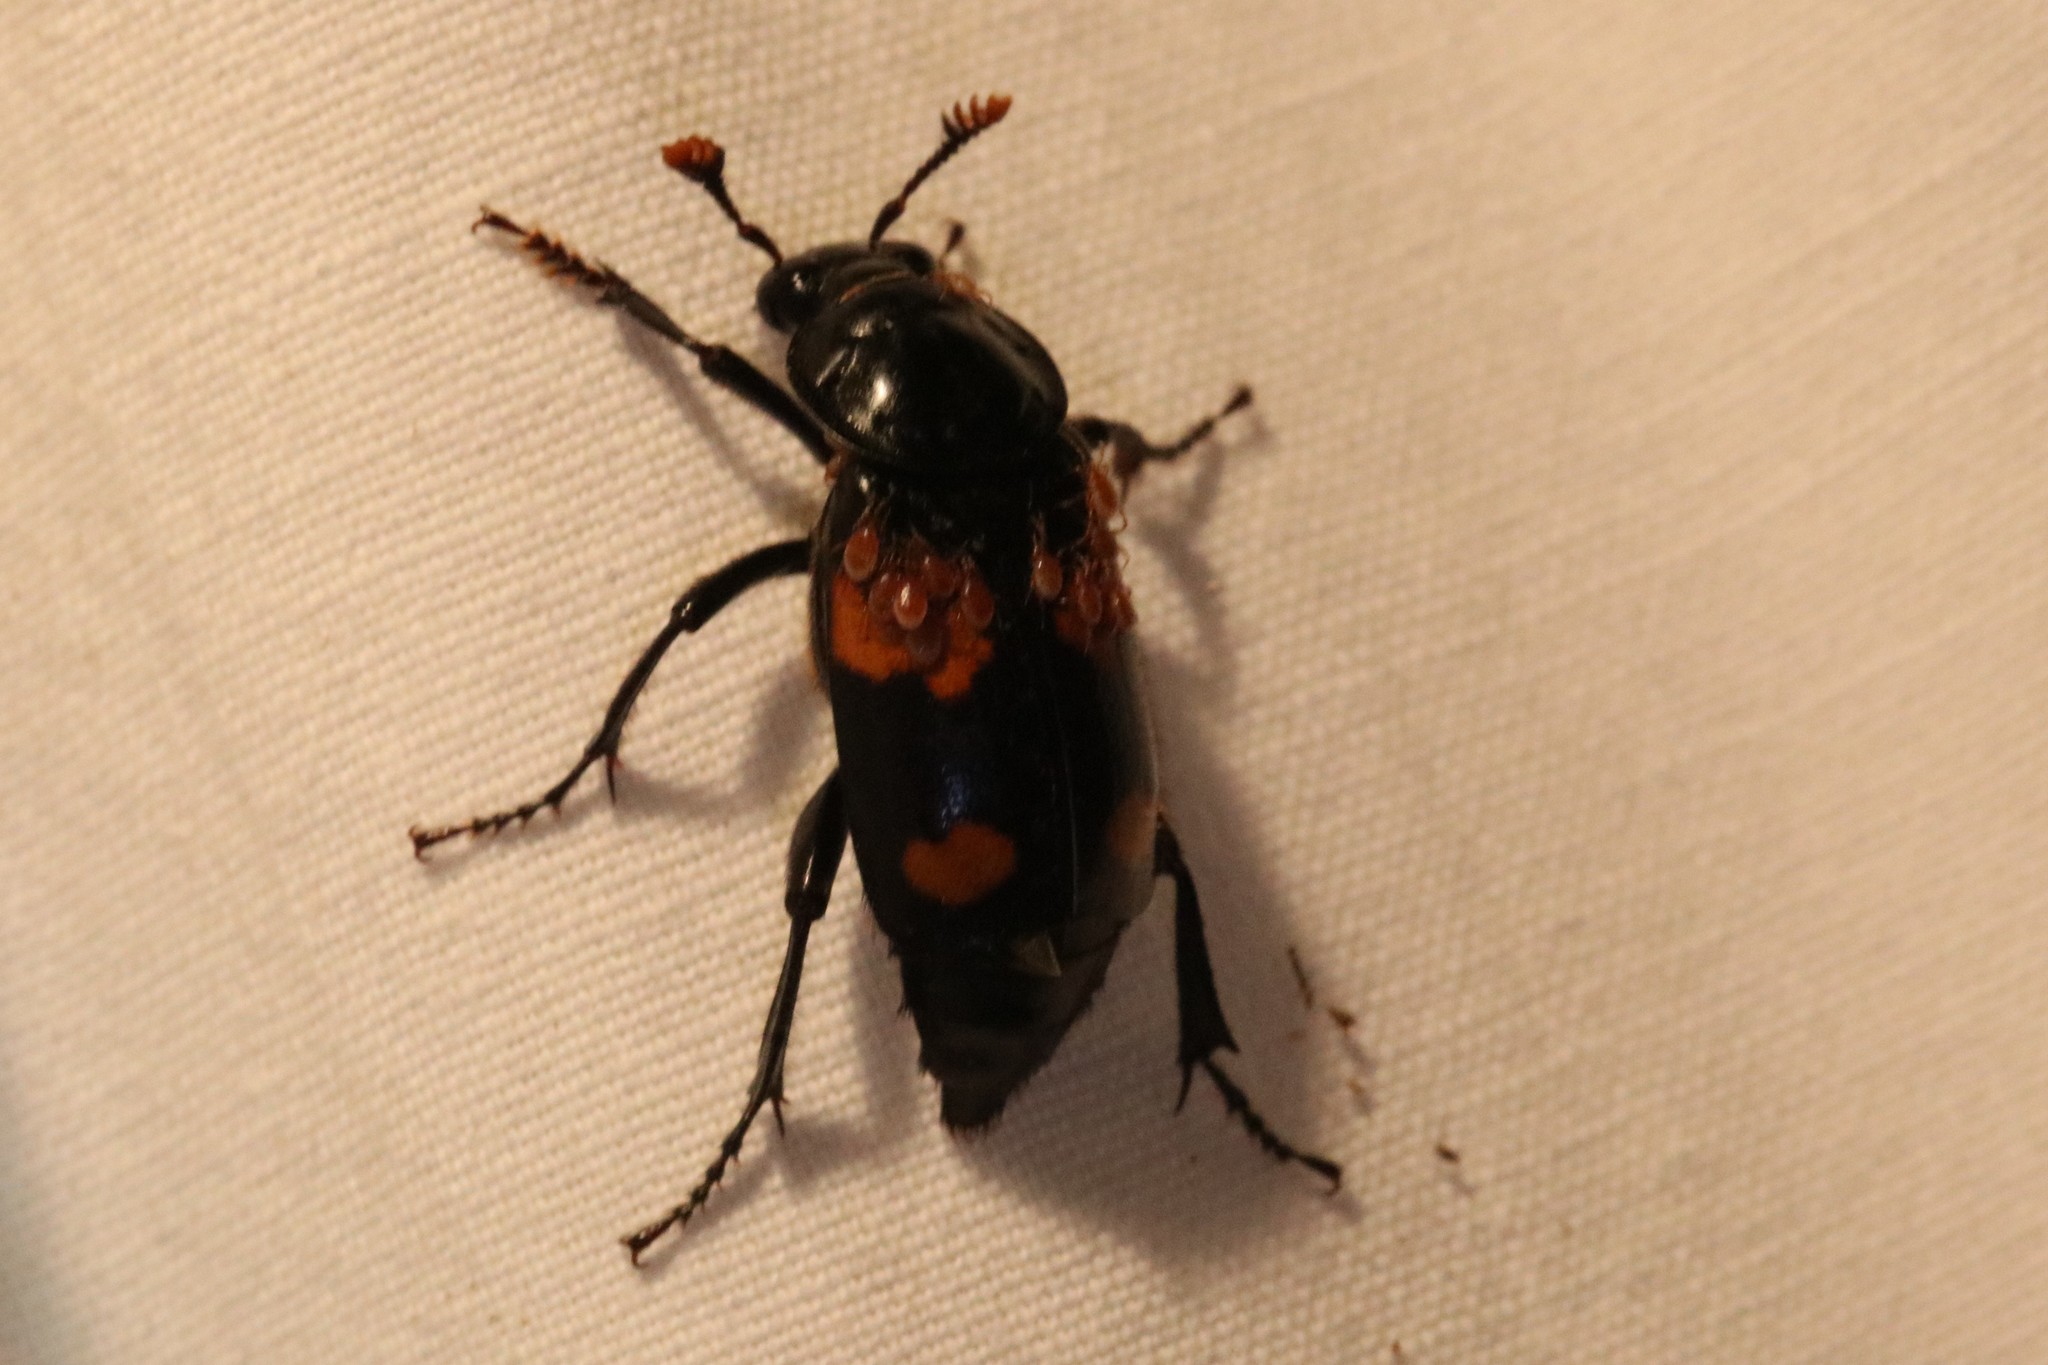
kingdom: Animalia
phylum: Arthropoda
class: Insecta
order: Coleoptera
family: Staphylinidae
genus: Nicrophorus
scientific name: Nicrophorus orbicollis
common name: Roundneck sexton beetle
